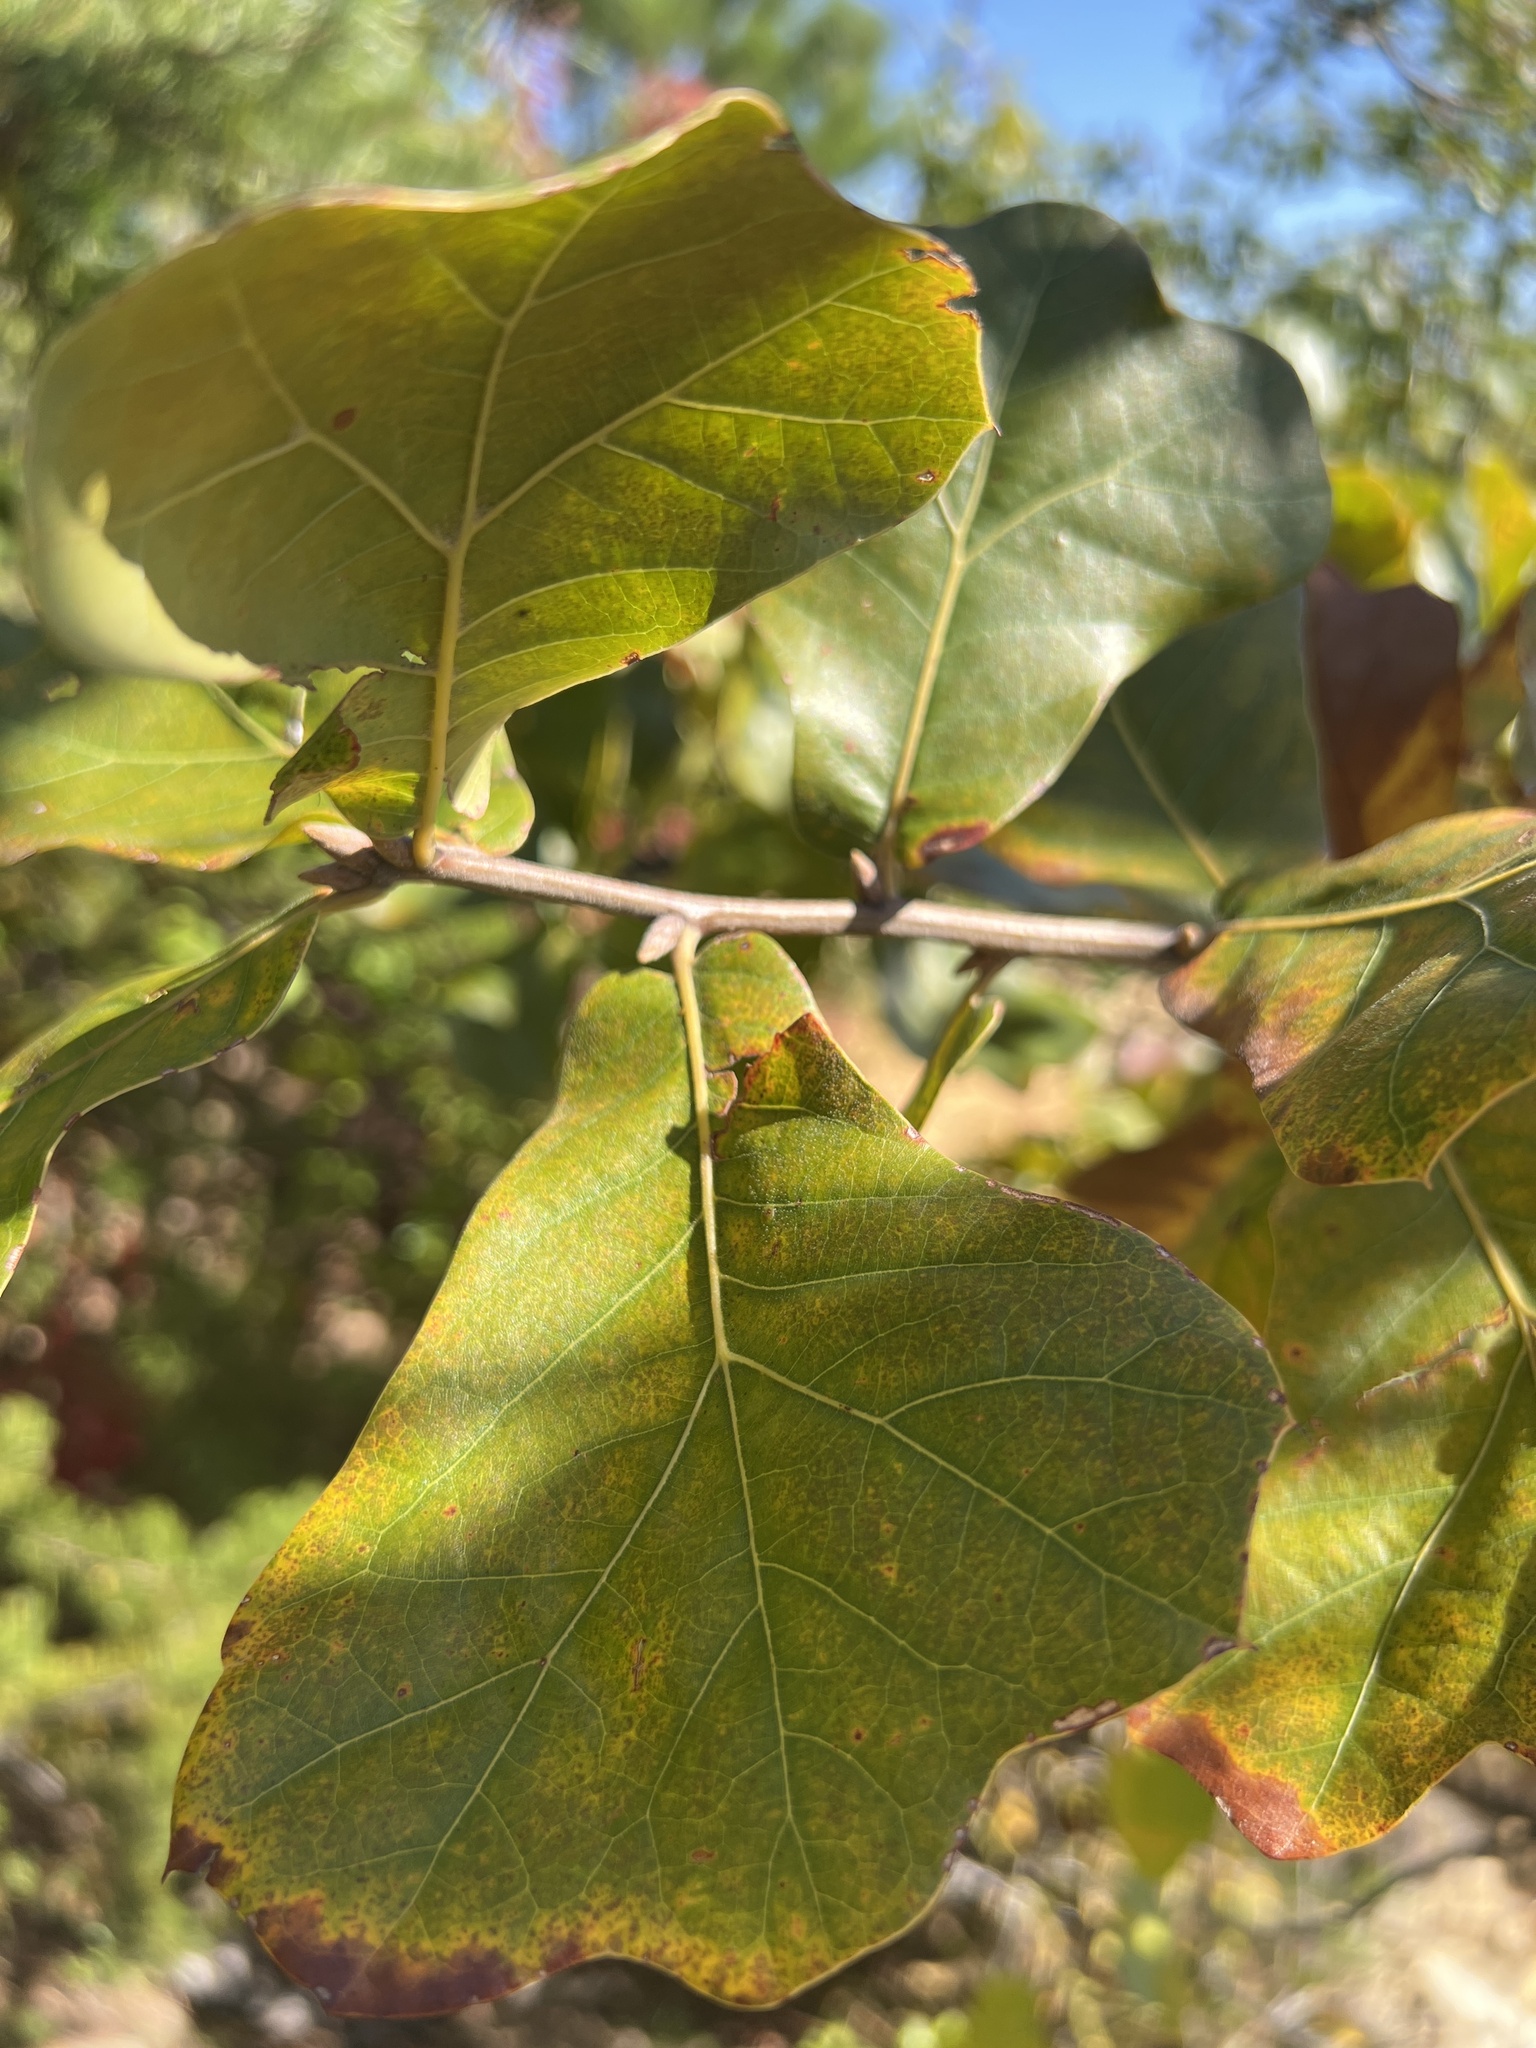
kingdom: Plantae
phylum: Tracheophyta
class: Magnoliopsida
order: Fagales
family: Fagaceae
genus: Quercus
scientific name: Quercus marilandica
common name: Blackjack oak
